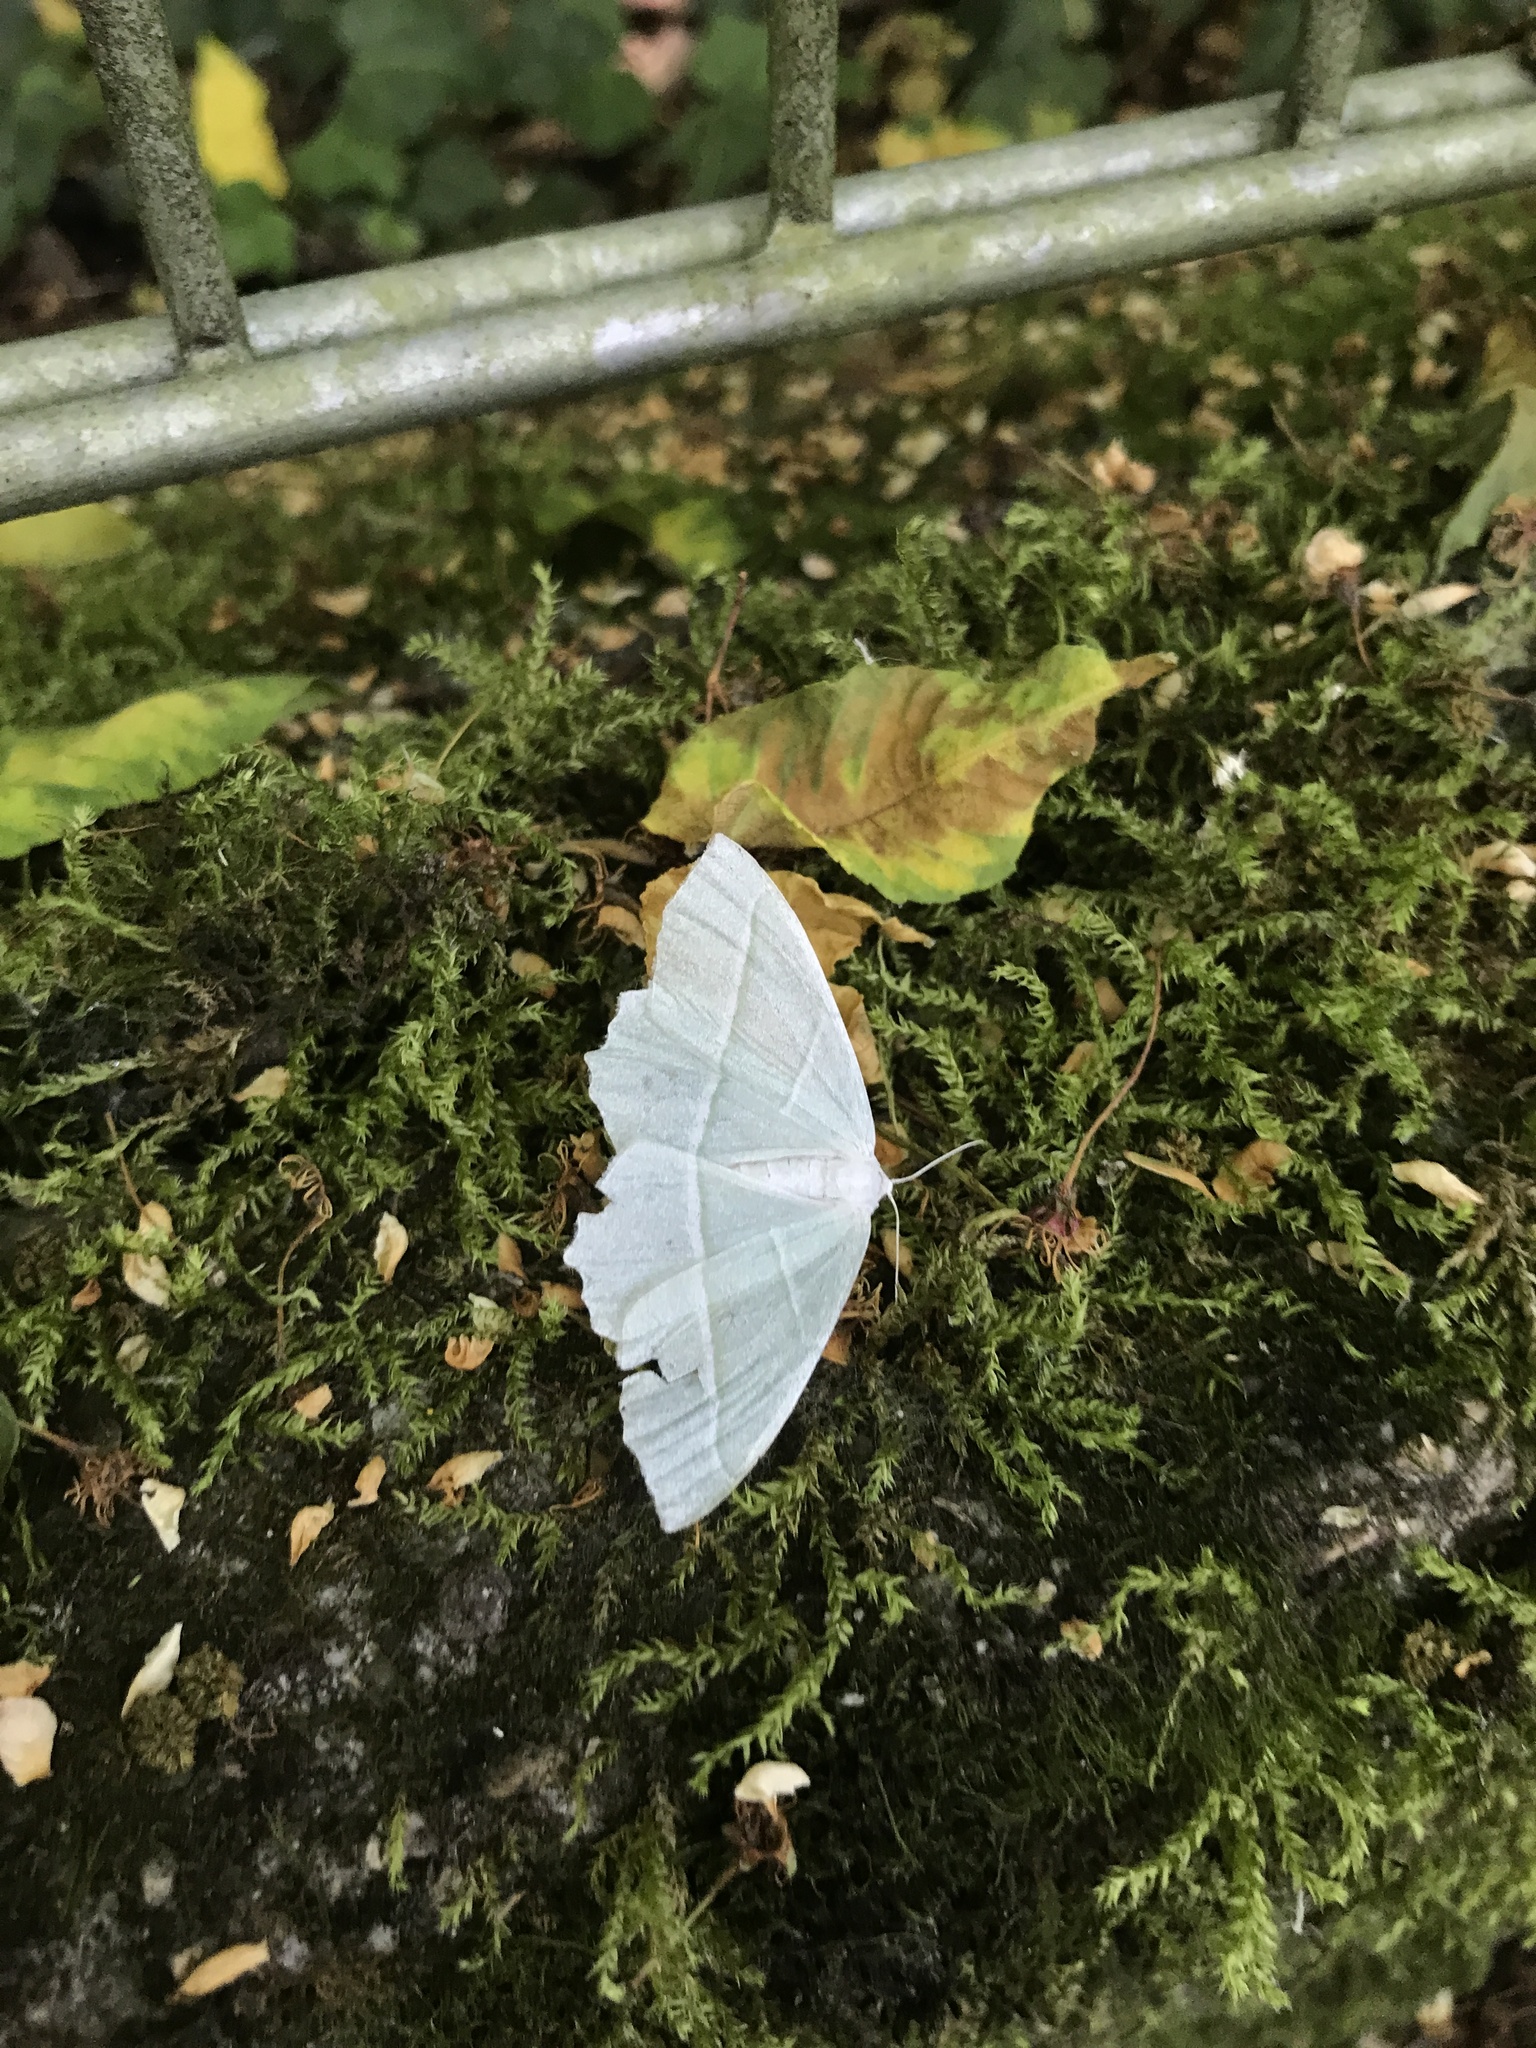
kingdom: Animalia
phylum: Arthropoda
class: Insecta
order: Lepidoptera
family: Geometridae
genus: Campaea
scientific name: Campaea margaritaria
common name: Light emerald
